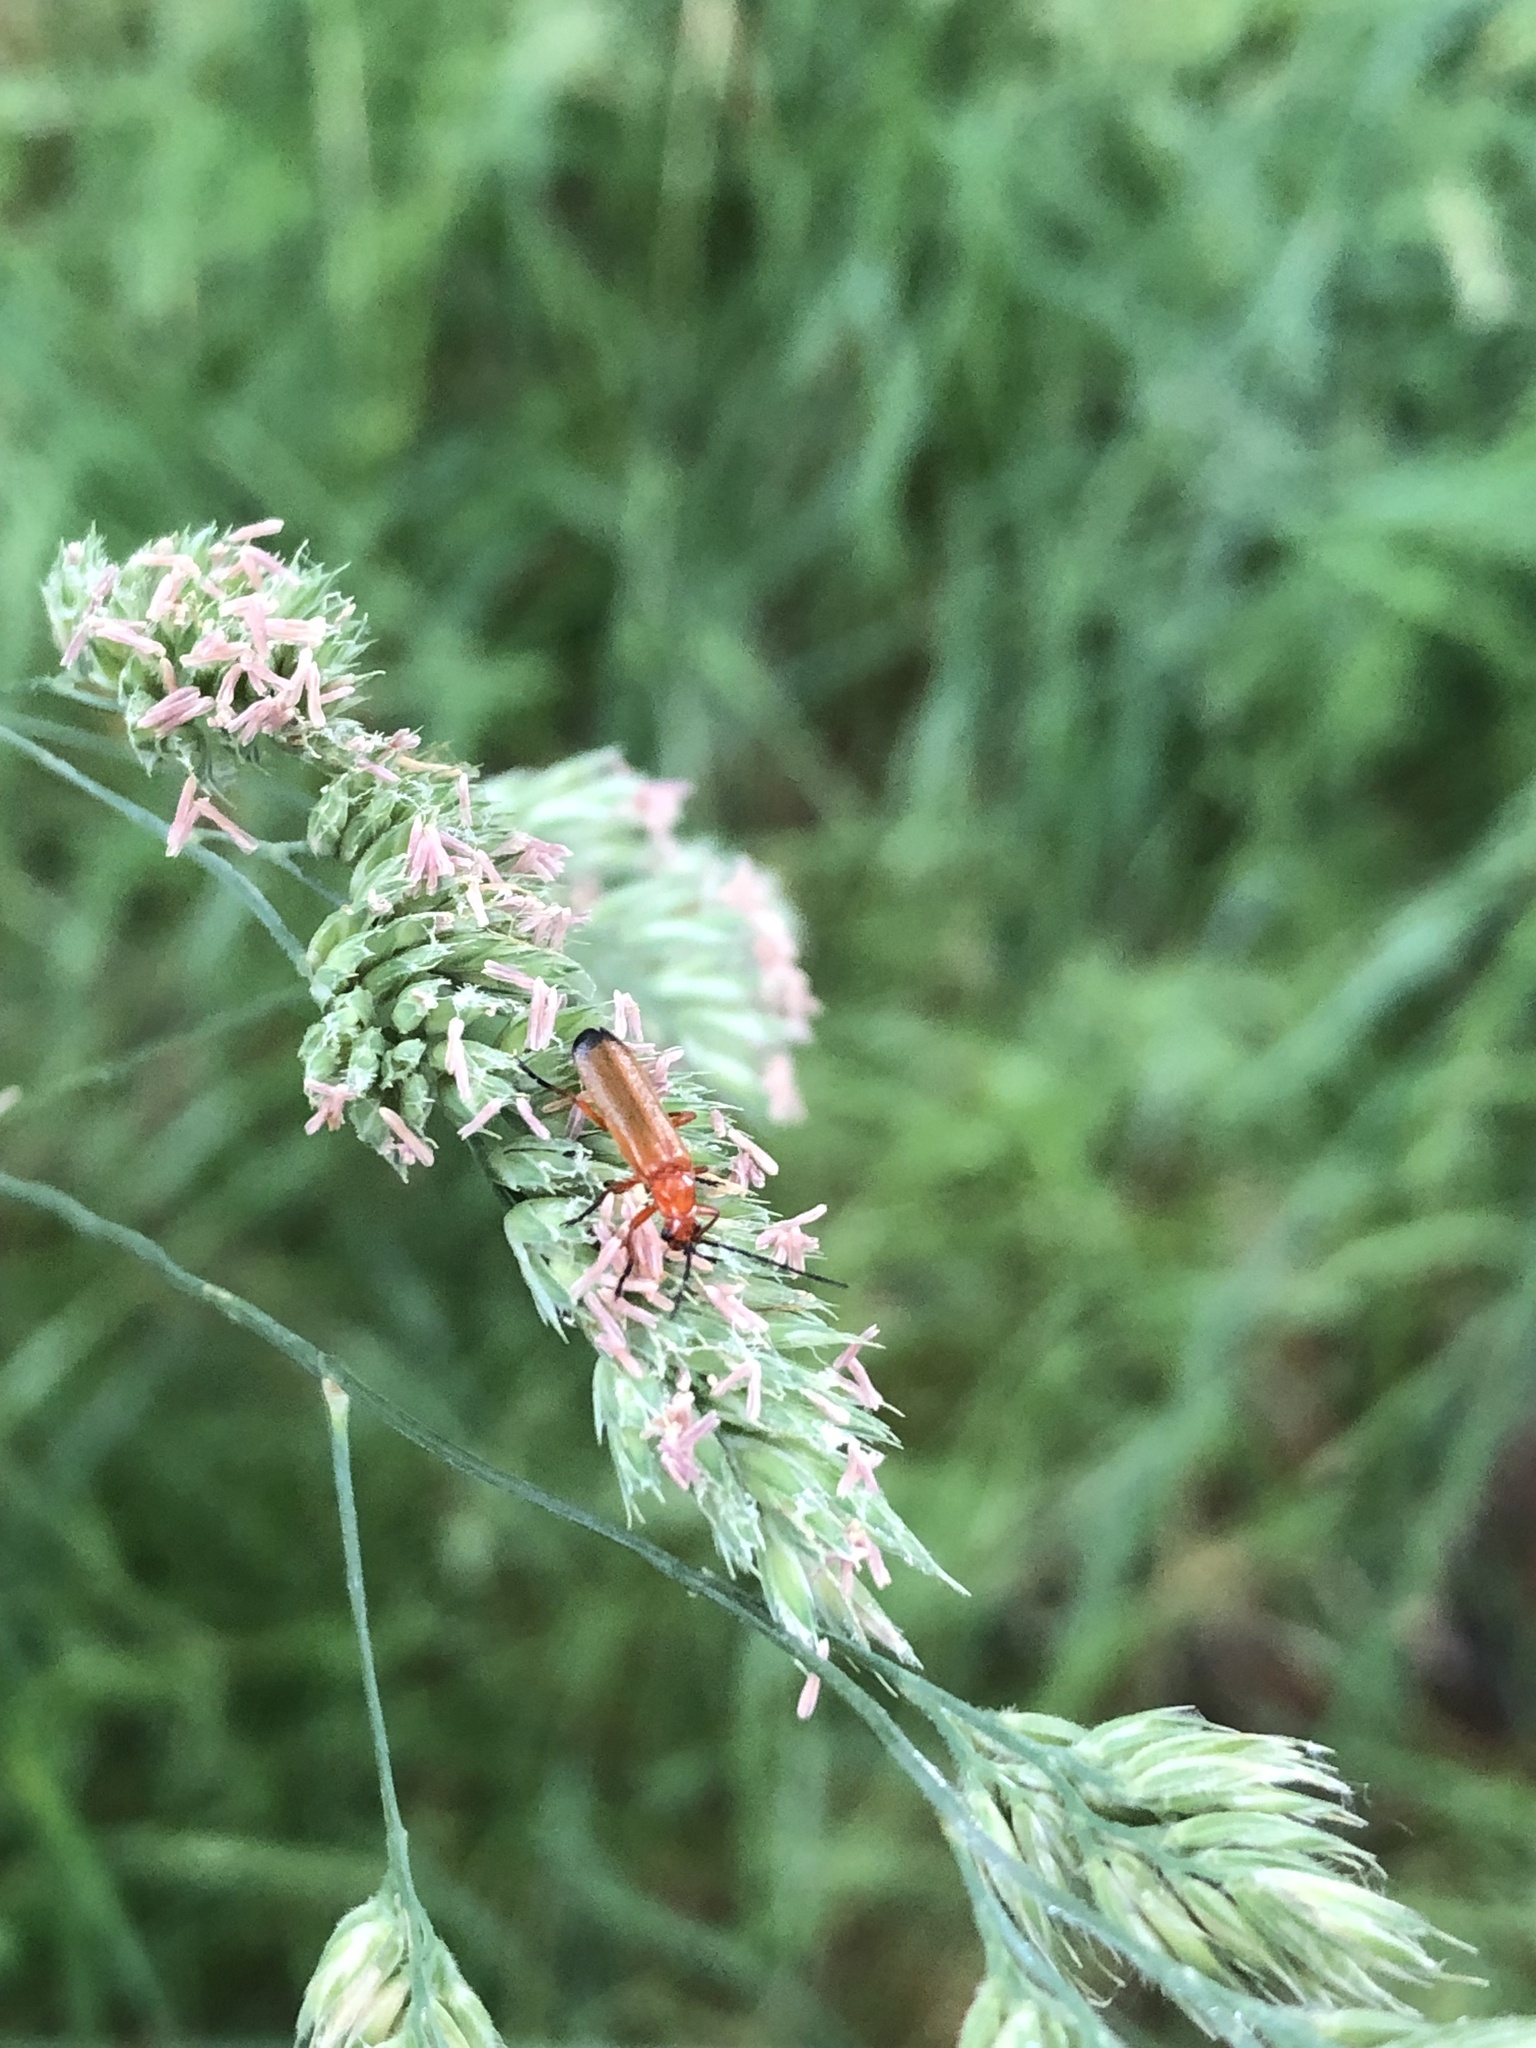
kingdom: Animalia
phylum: Arthropoda
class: Insecta
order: Coleoptera
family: Cantharidae
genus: Rhagonycha
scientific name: Rhagonycha fulva
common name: Common red soldier beetle
